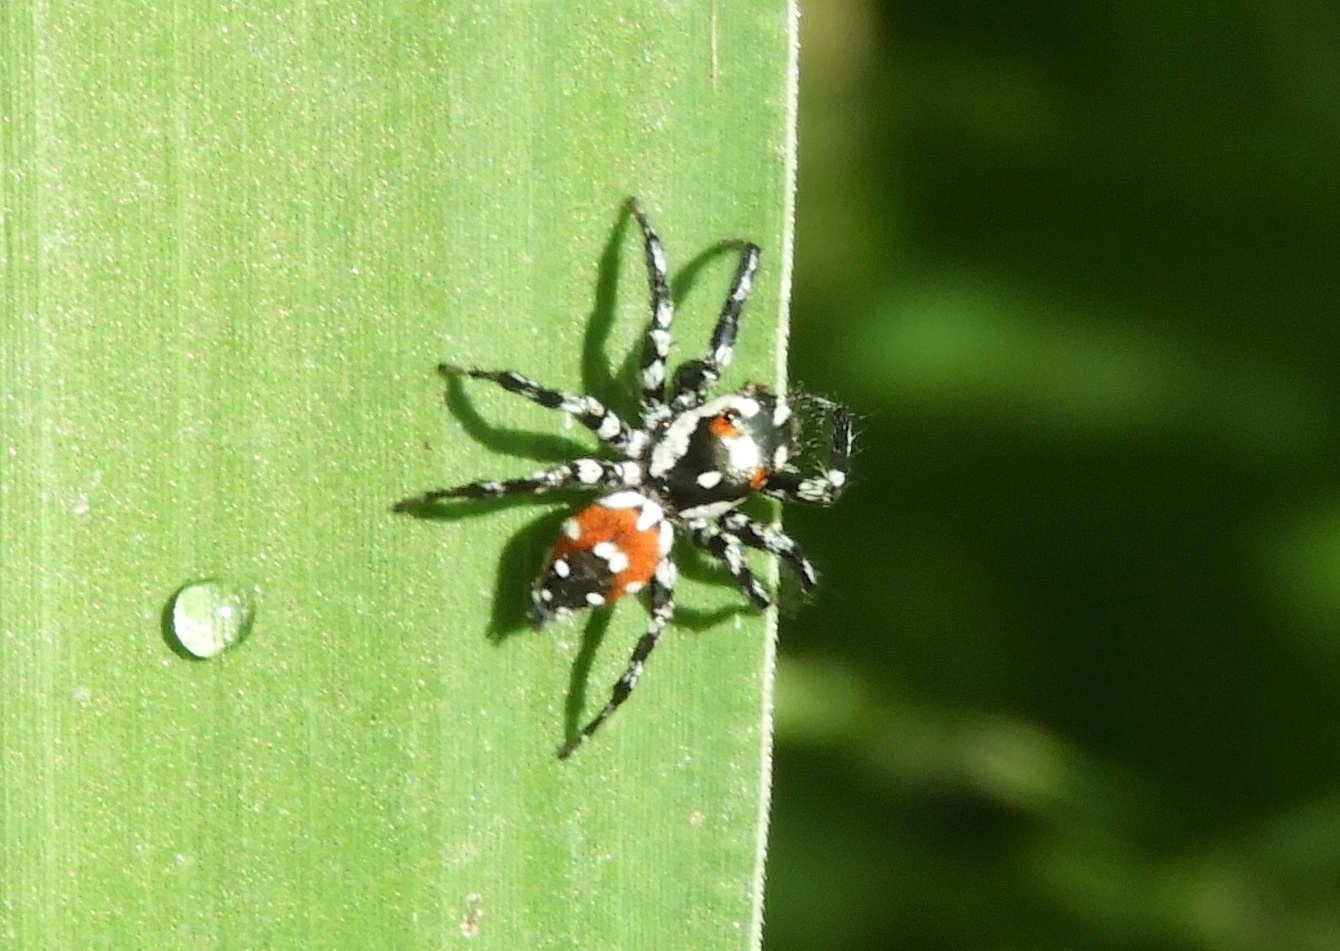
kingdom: Animalia
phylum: Arthropoda
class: Arachnida
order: Araneae
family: Salticidae
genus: Nycerella
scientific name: Nycerella delecta
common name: Jumping spiders
